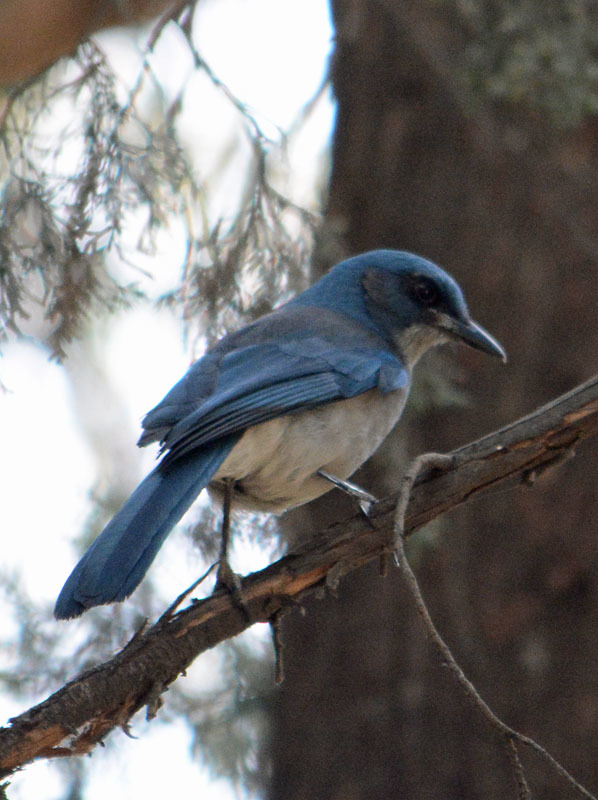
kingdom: Animalia
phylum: Chordata
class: Aves
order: Passeriformes
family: Corvidae
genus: Aphelocoma
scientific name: Aphelocoma woodhouseii
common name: Woodhouse's scrub-jay
